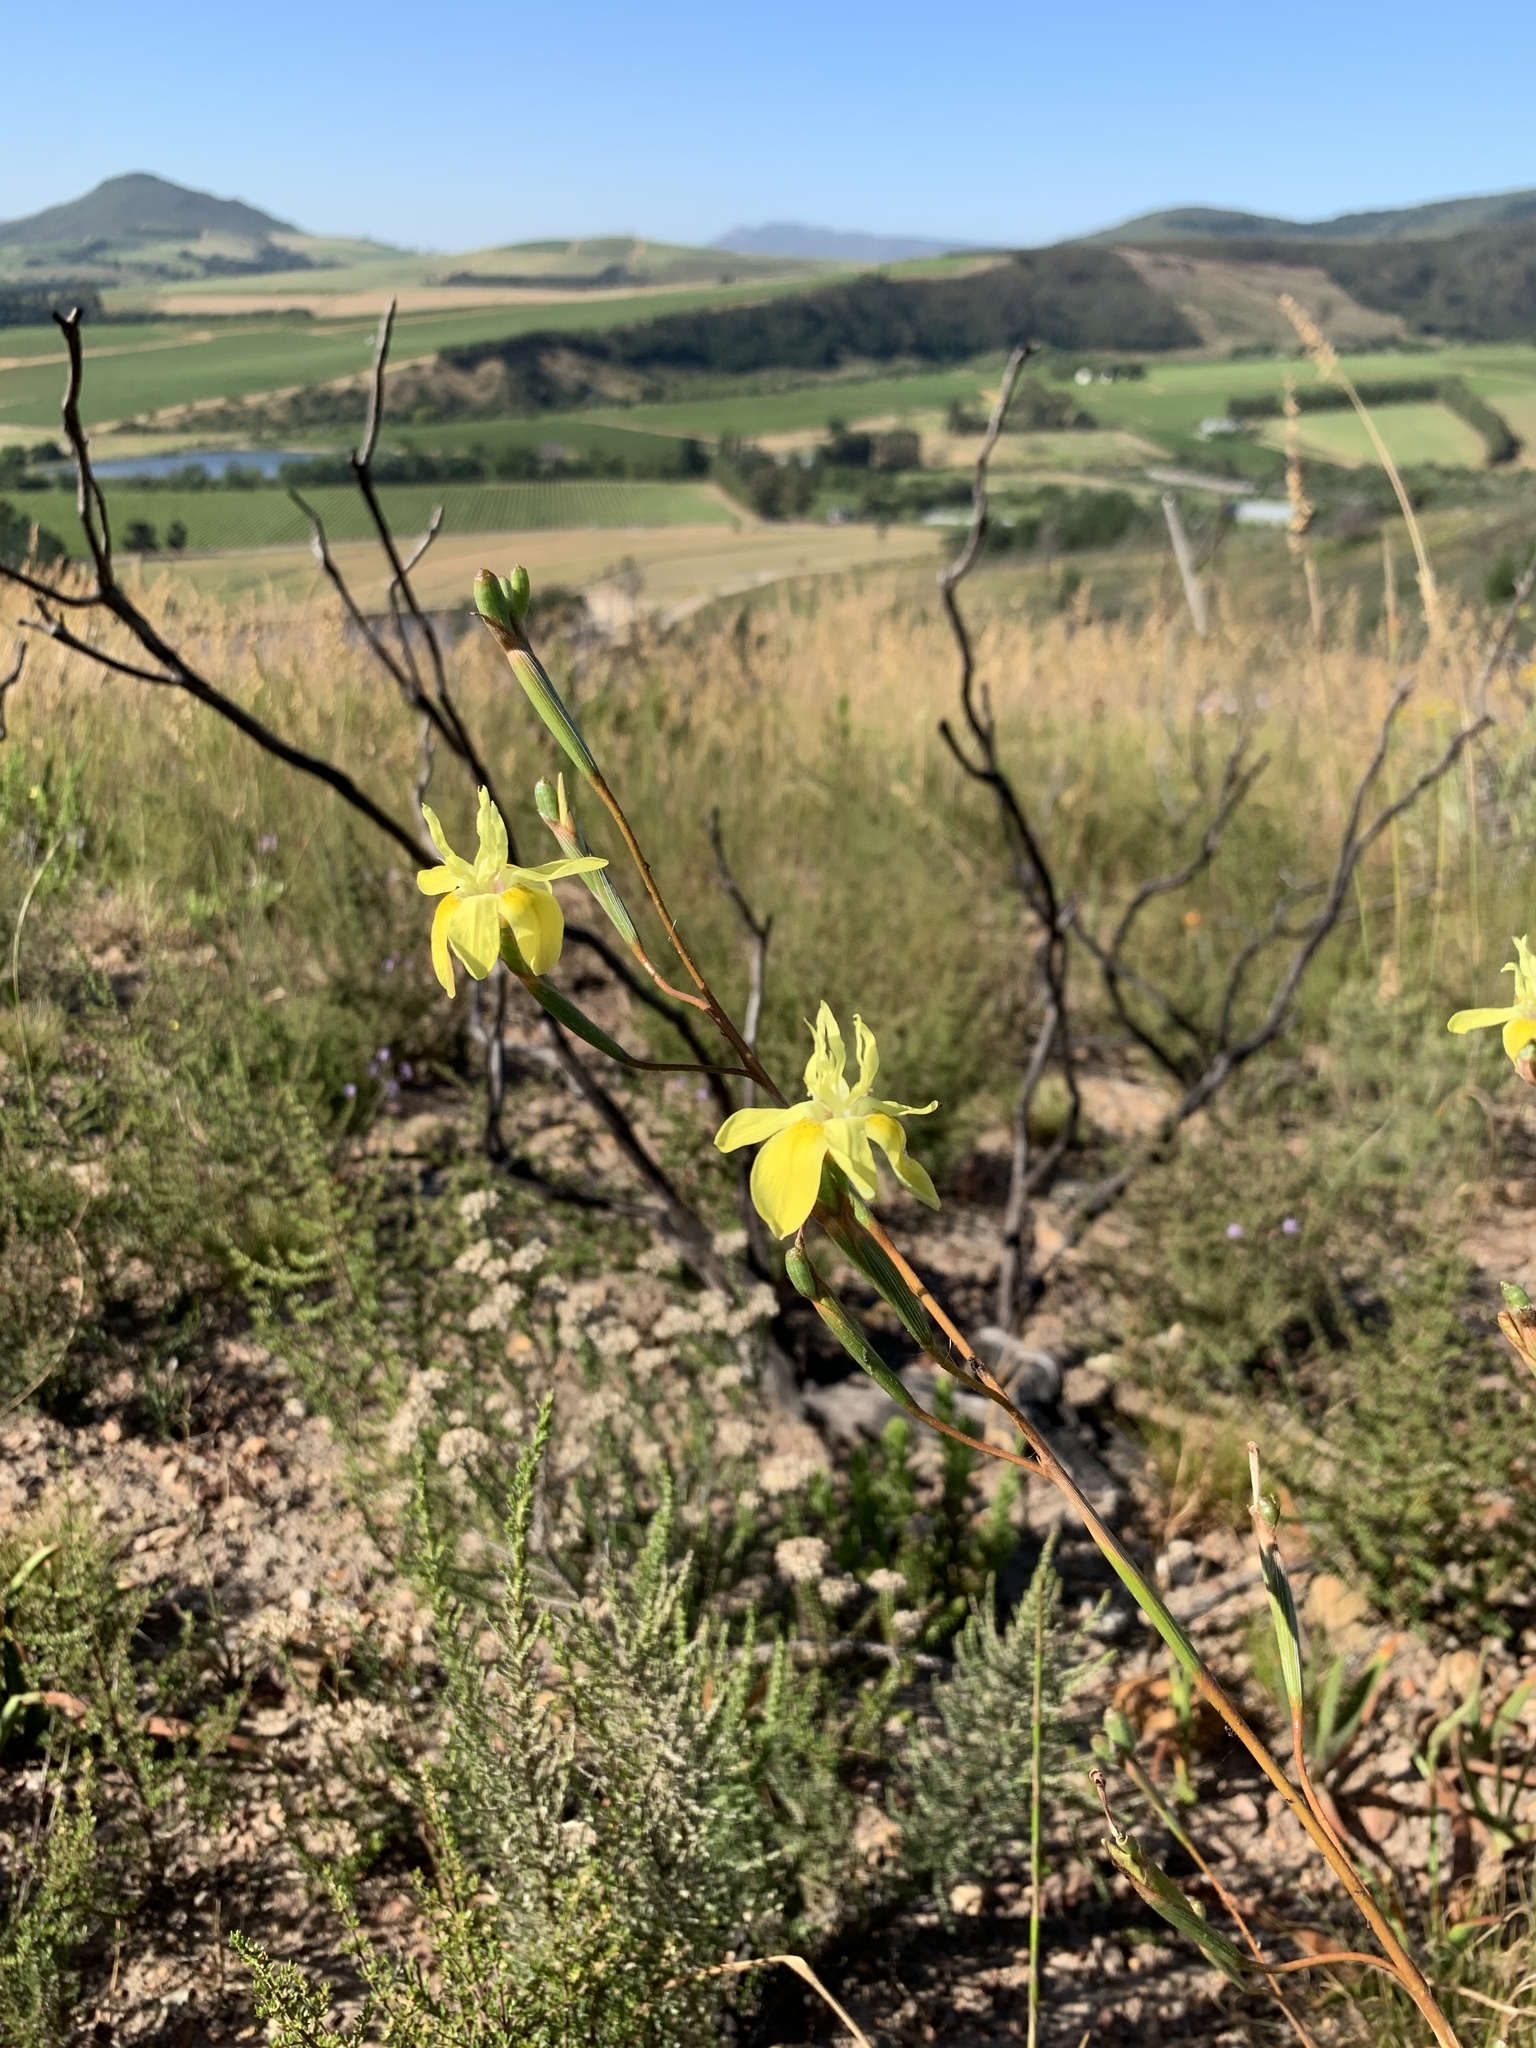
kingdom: Plantae
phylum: Tracheophyta
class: Liliopsida
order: Asparagales
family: Iridaceae
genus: Moraea
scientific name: Moraea bituminosa
